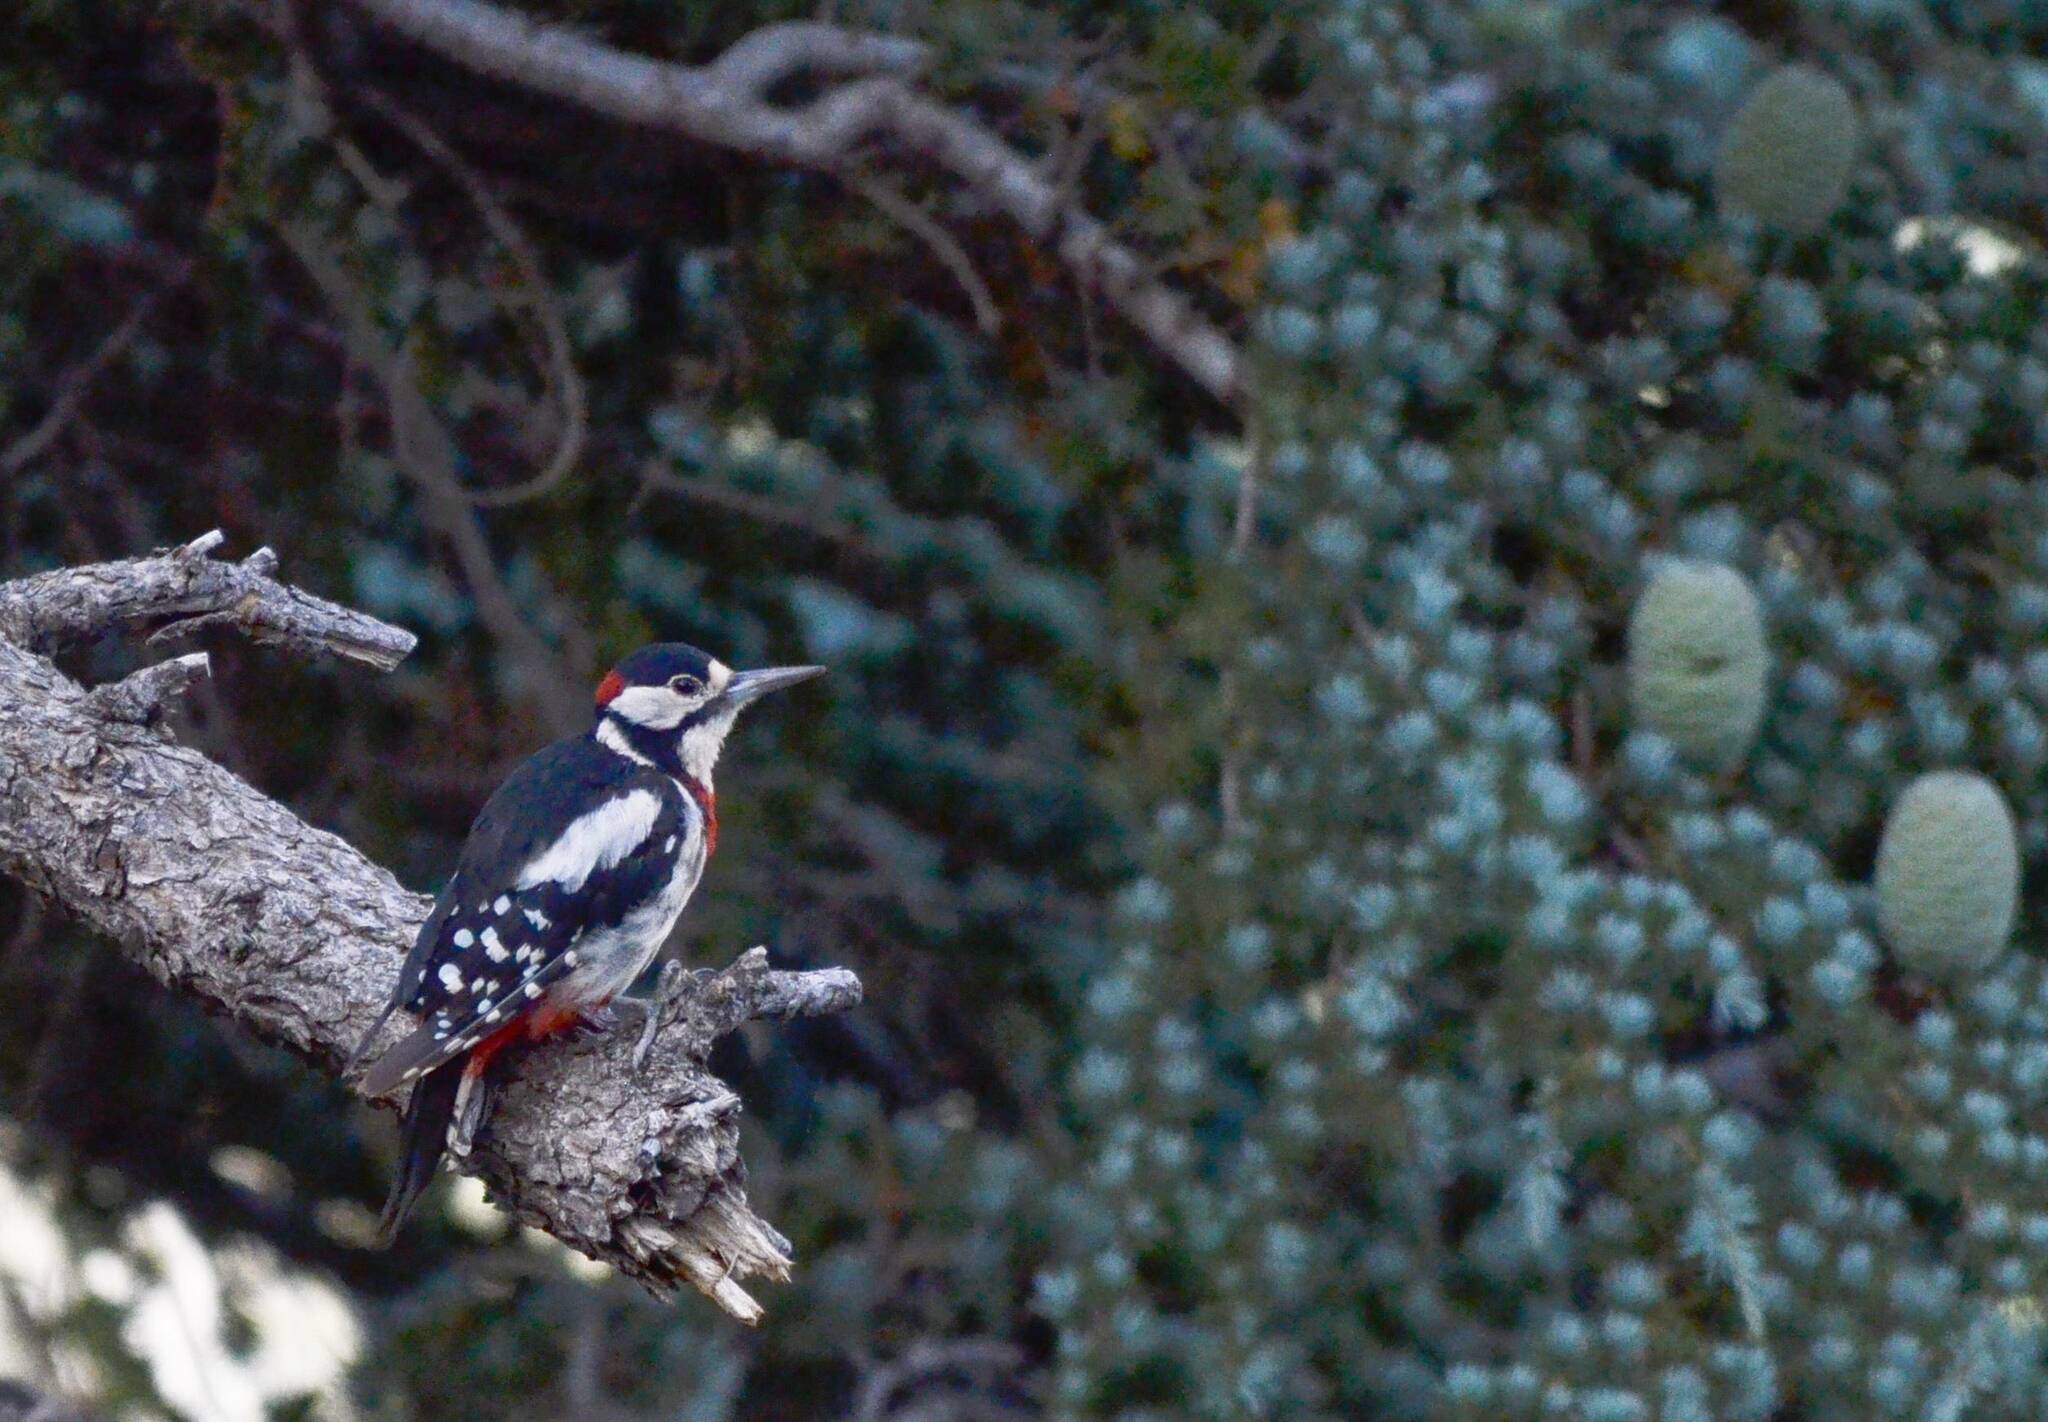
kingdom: Animalia
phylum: Chordata
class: Aves
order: Piciformes
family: Picidae
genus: Dendrocopos
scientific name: Dendrocopos major
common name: Great spotted woodpecker
